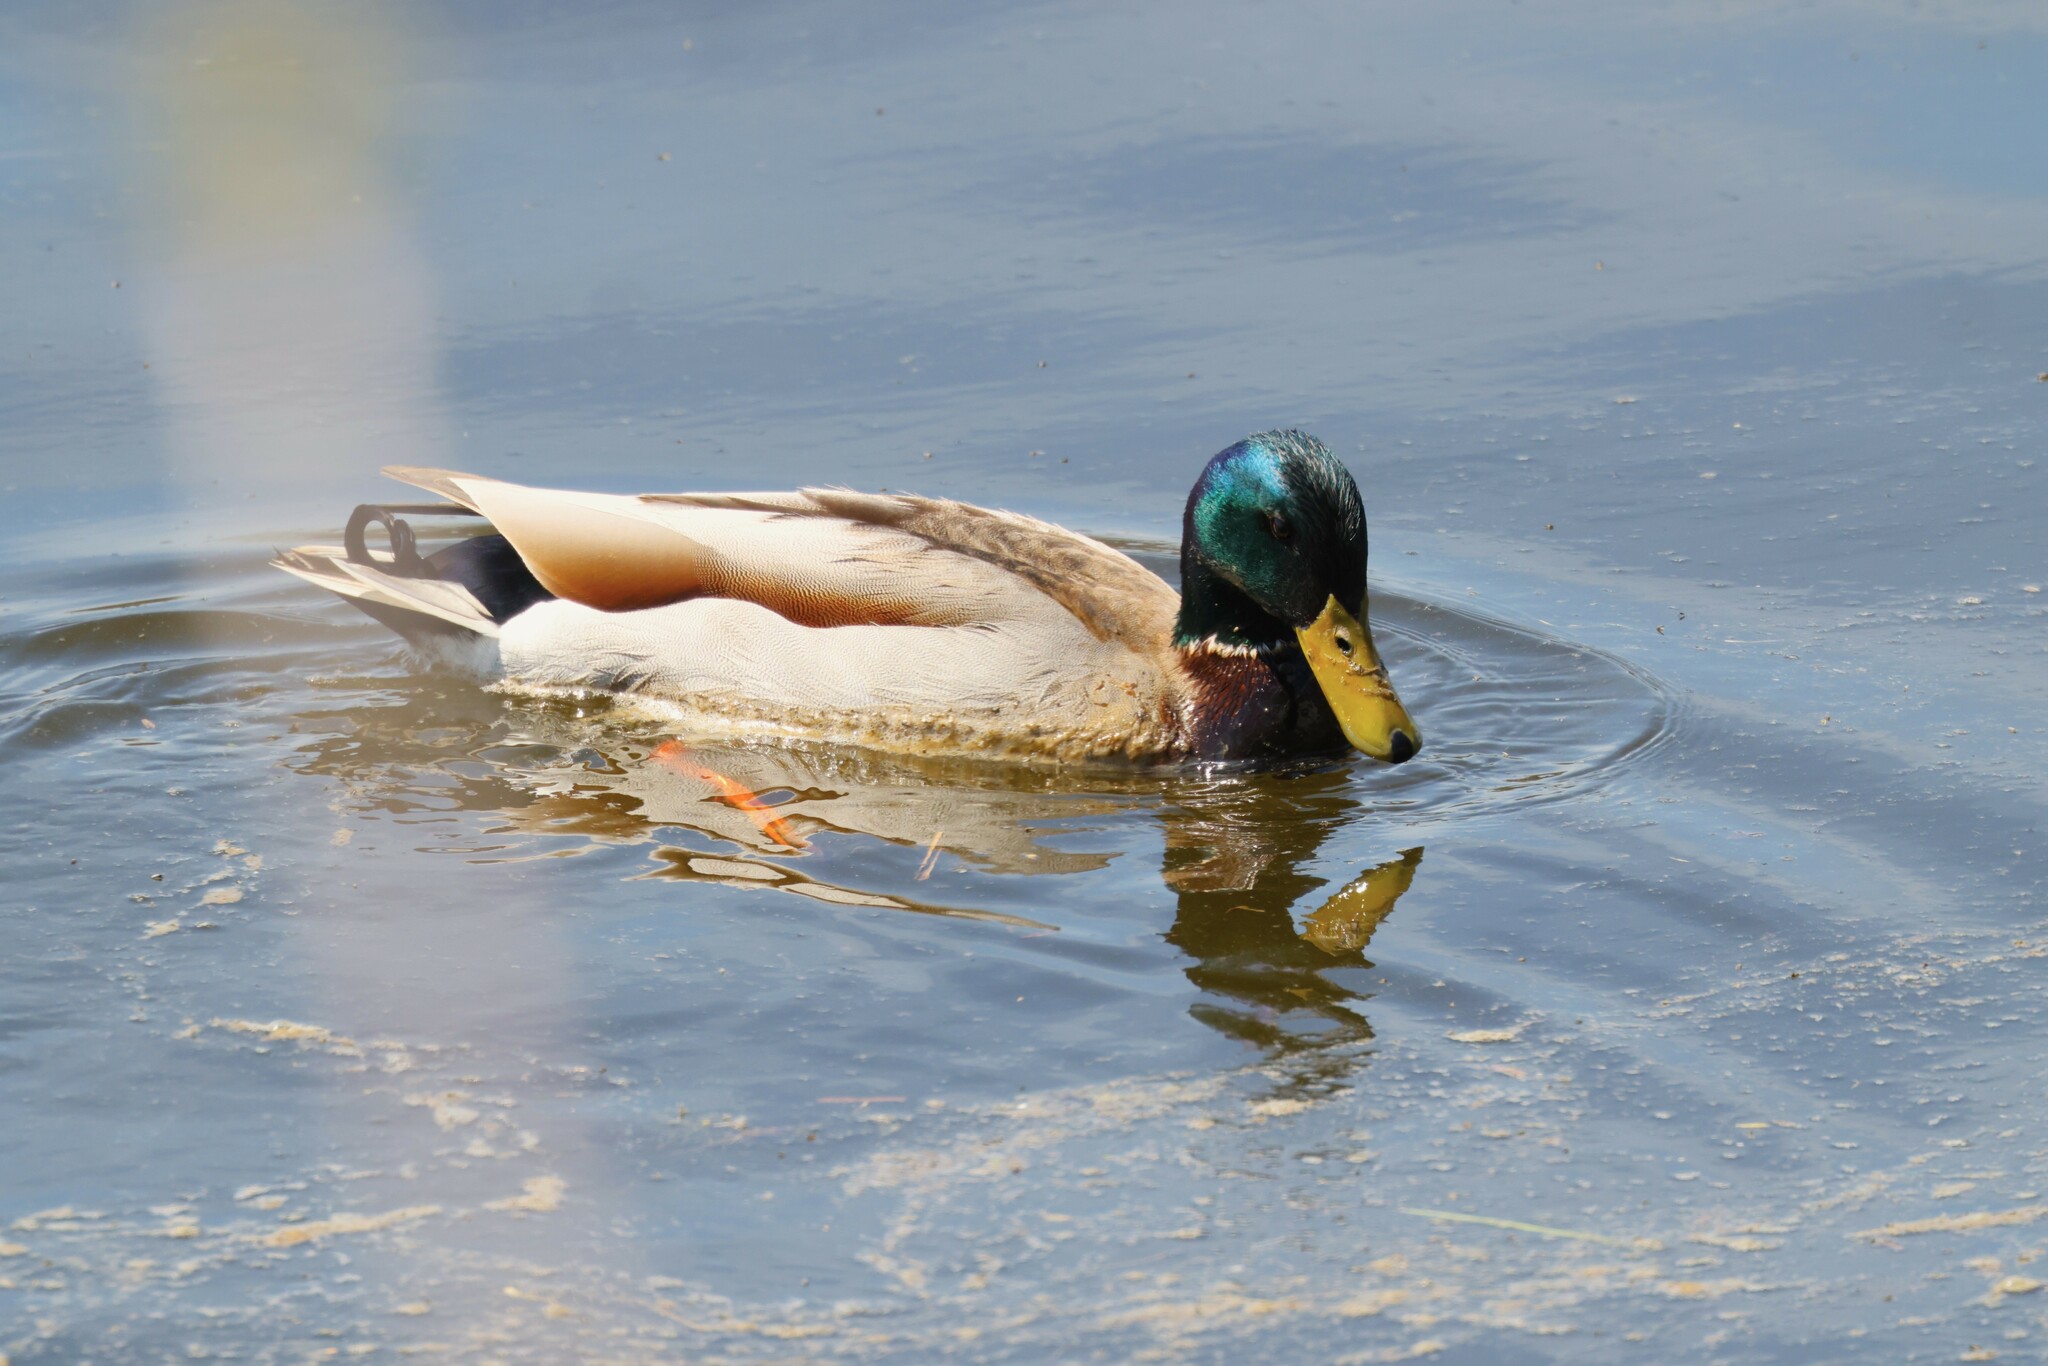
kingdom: Animalia
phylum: Chordata
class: Aves
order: Anseriformes
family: Anatidae
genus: Anas
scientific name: Anas platyrhynchos
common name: Mallard
